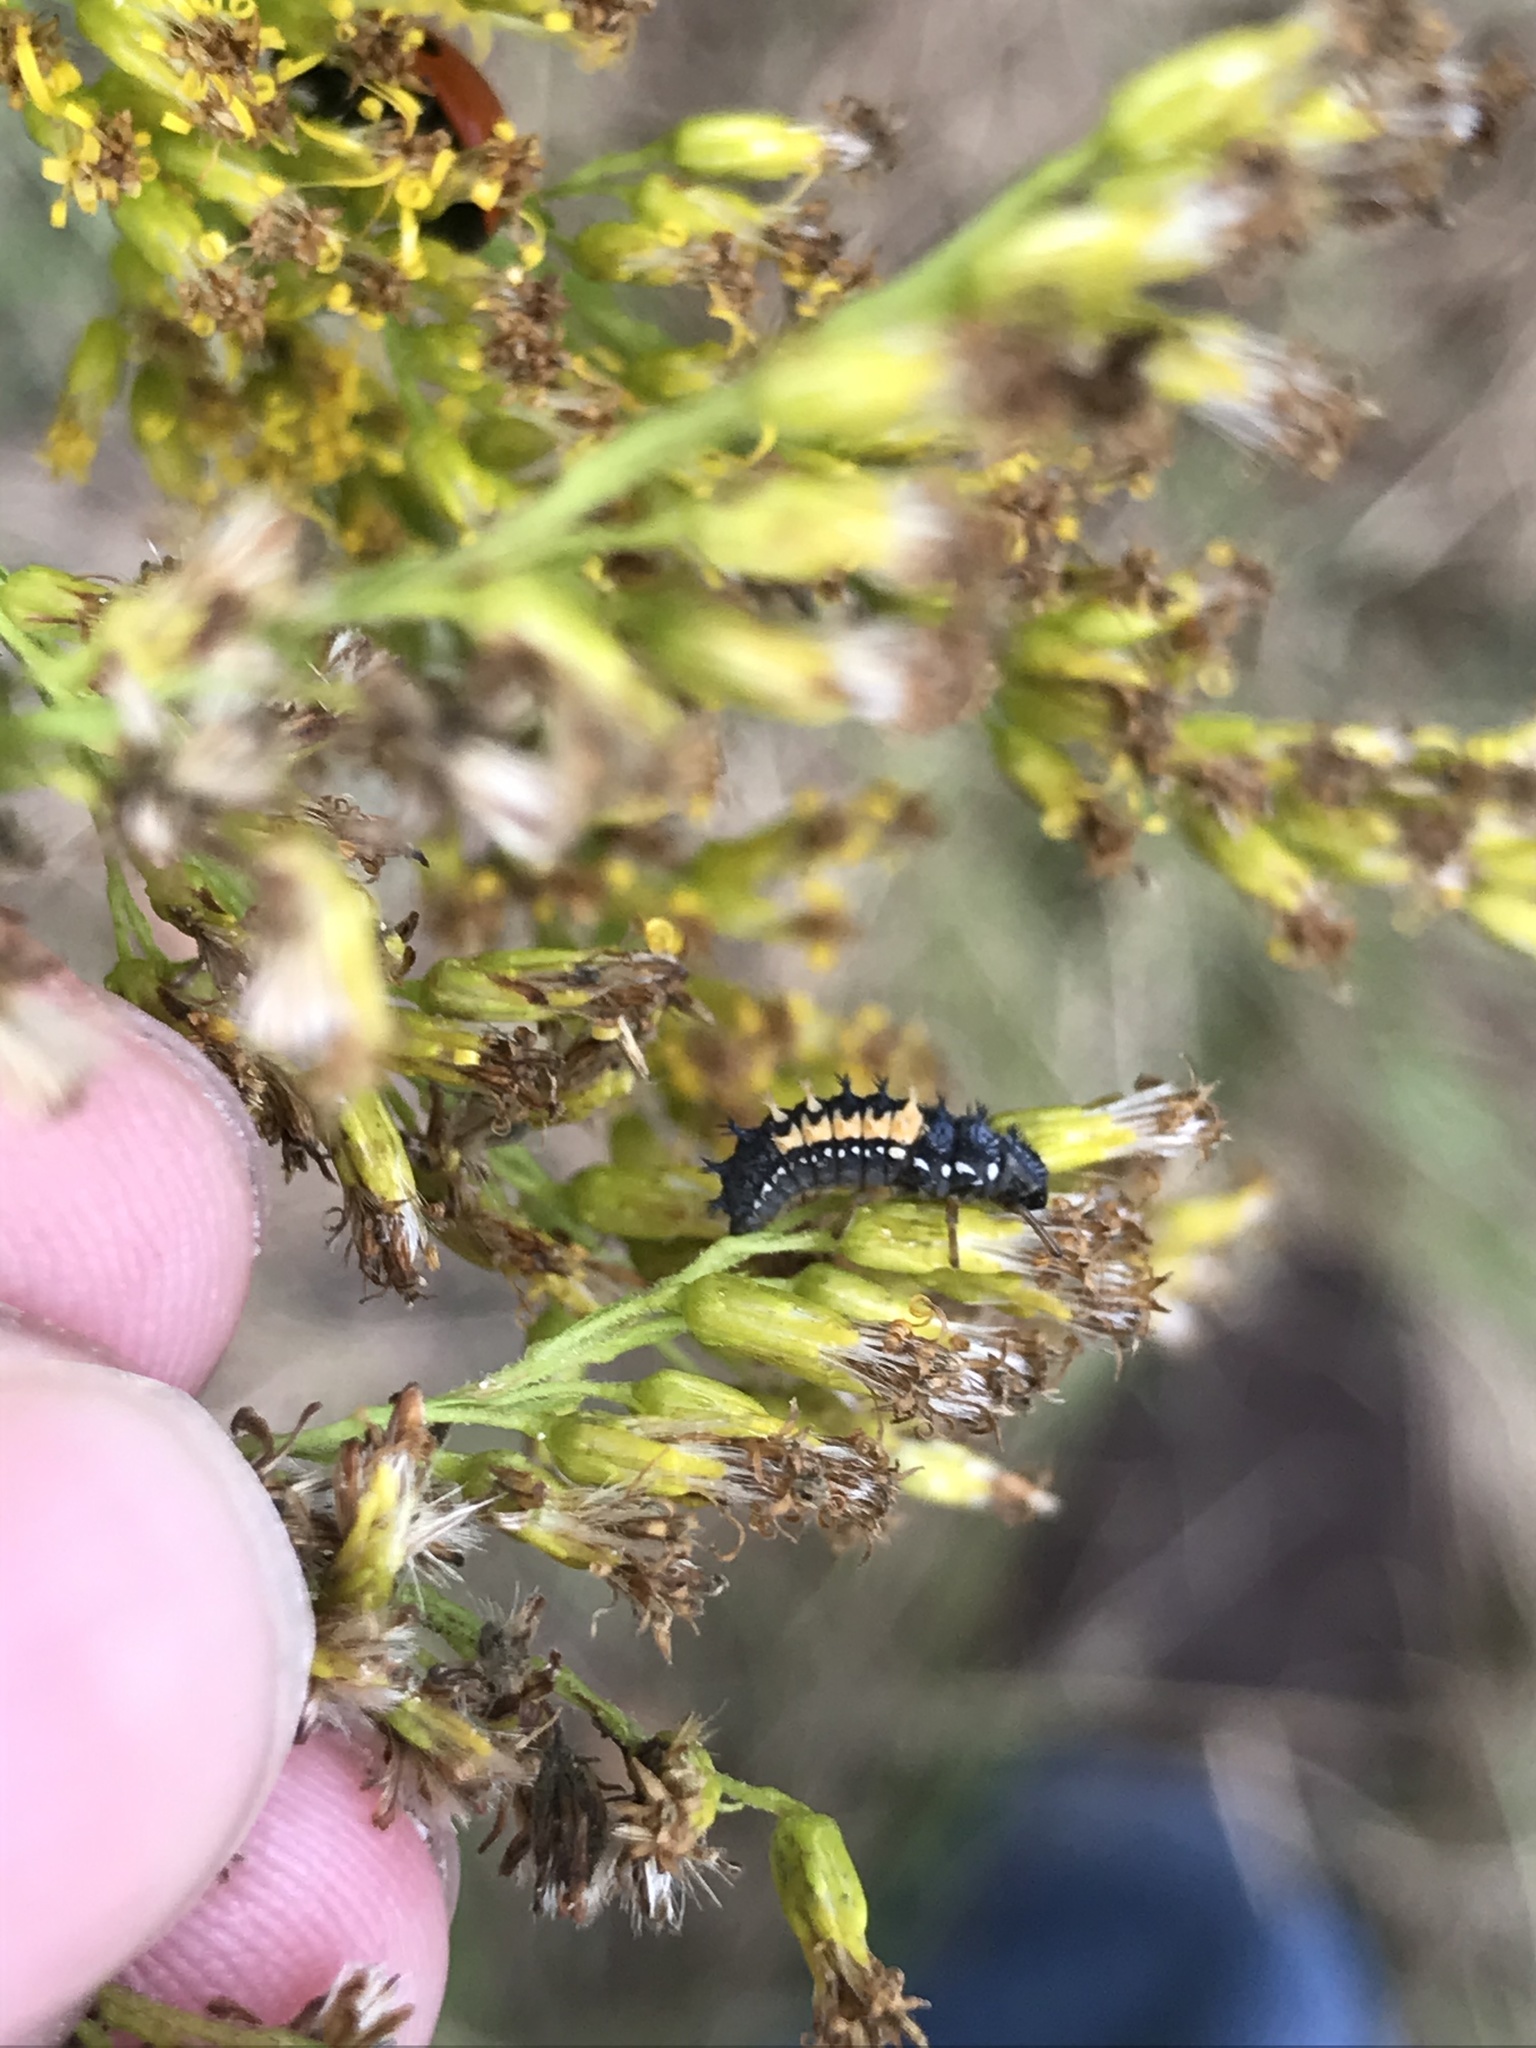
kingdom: Animalia
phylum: Arthropoda
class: Insecta
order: Coleoptera
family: Coccinellidae
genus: Harmonia
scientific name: Harmonia axyridis
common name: Harlequin ladybird
